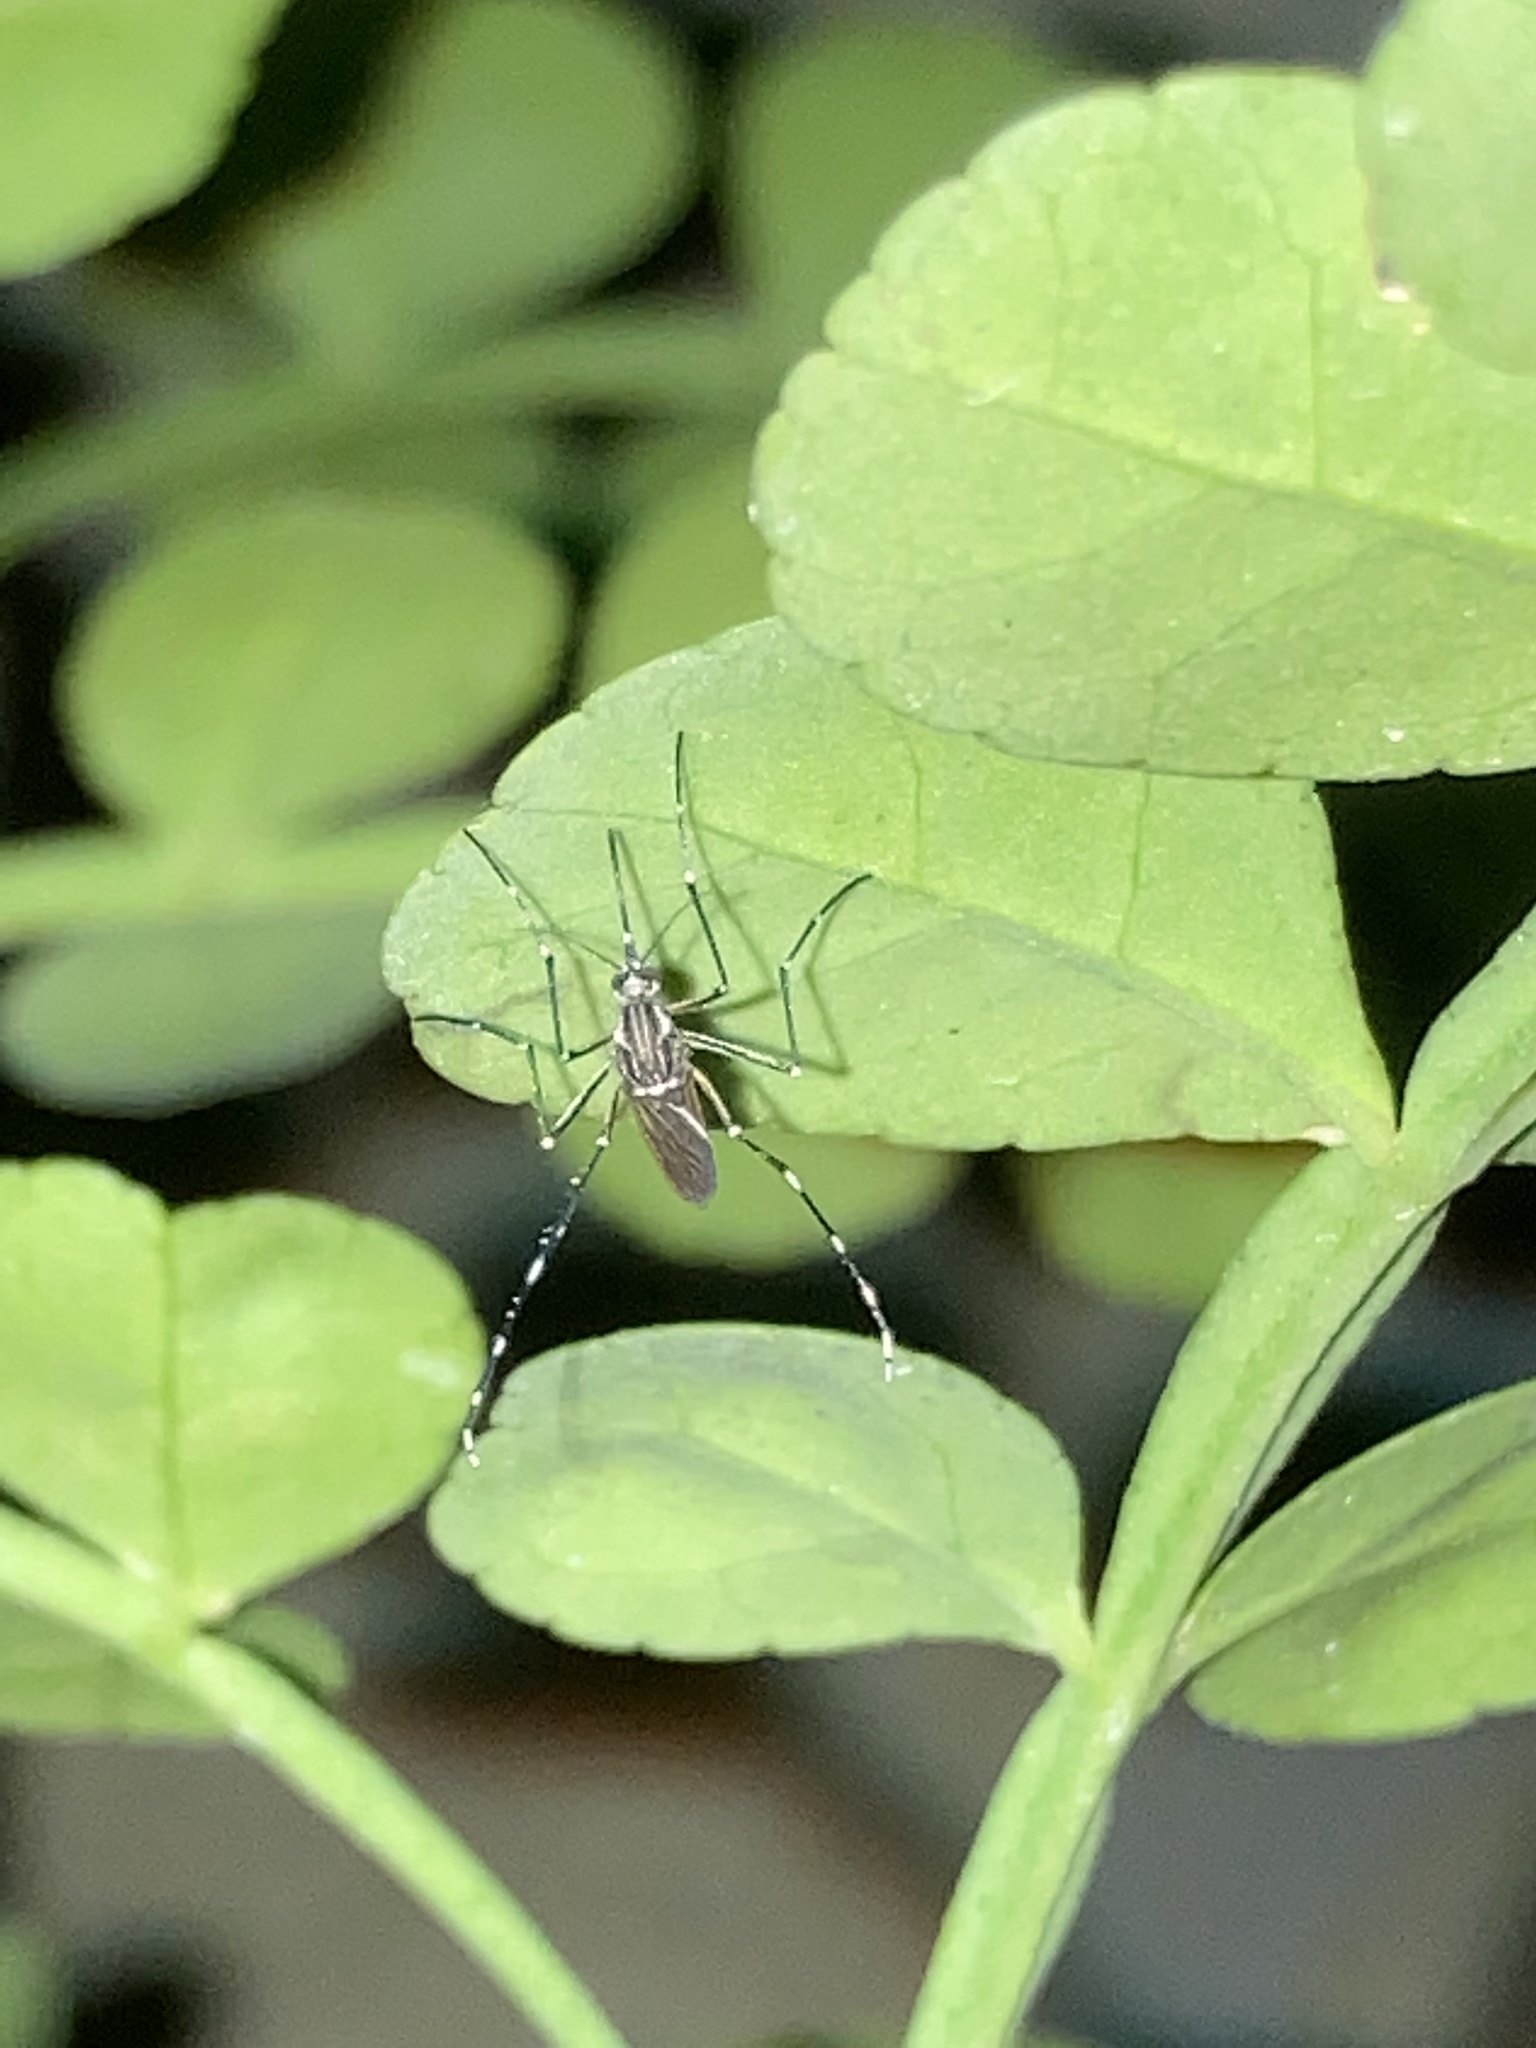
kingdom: Animalia
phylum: Arthropoda
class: Insecta
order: Diptera
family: Culicidae
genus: Aedes
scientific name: Aedes aegypti
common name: Yellow fever mosquito
